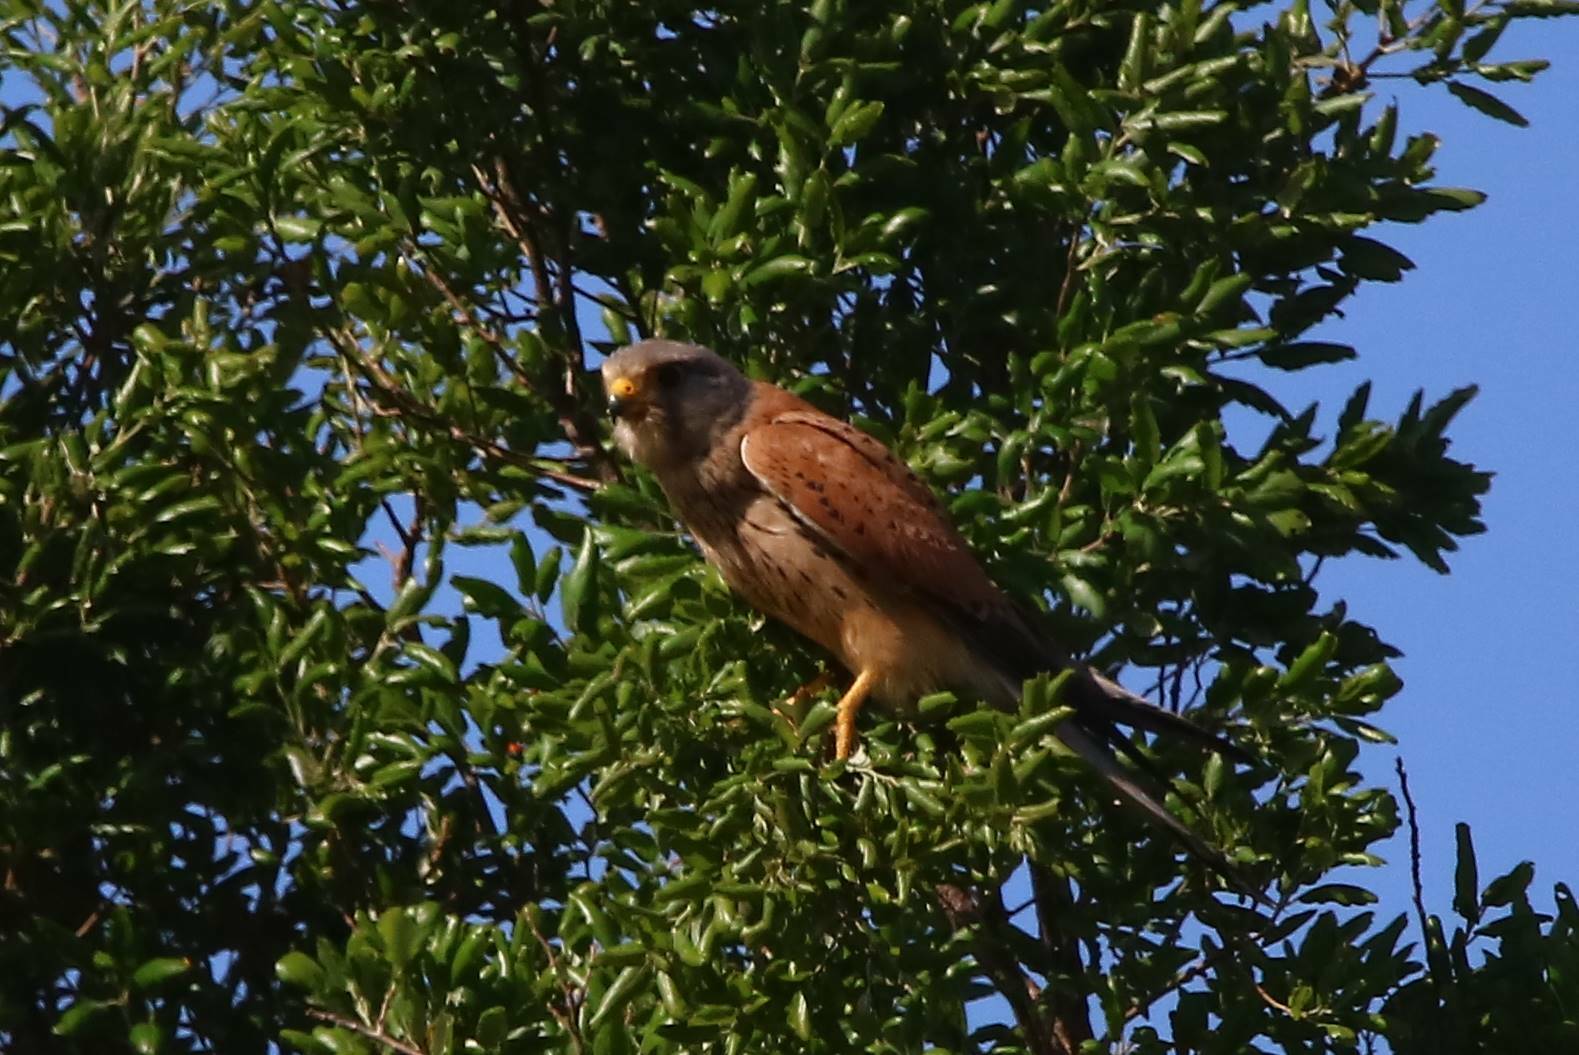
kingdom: Animalia
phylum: Chordata
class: Aves
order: Falconiformes
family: Falconidae
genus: Falco
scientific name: Falco tinnunculus
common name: Common kestrel
